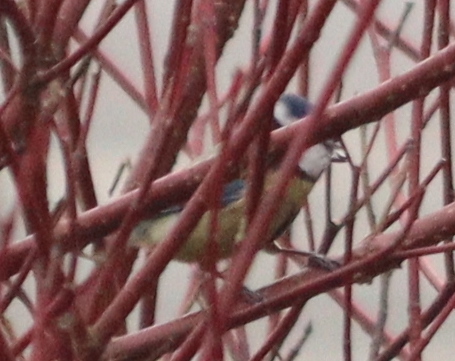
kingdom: Animalia
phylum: Chordata
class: Aves
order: Passeriformes
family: Paridae
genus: Cyanistes
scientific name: Cyanistes caeruleus
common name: Eurasian blue tit
